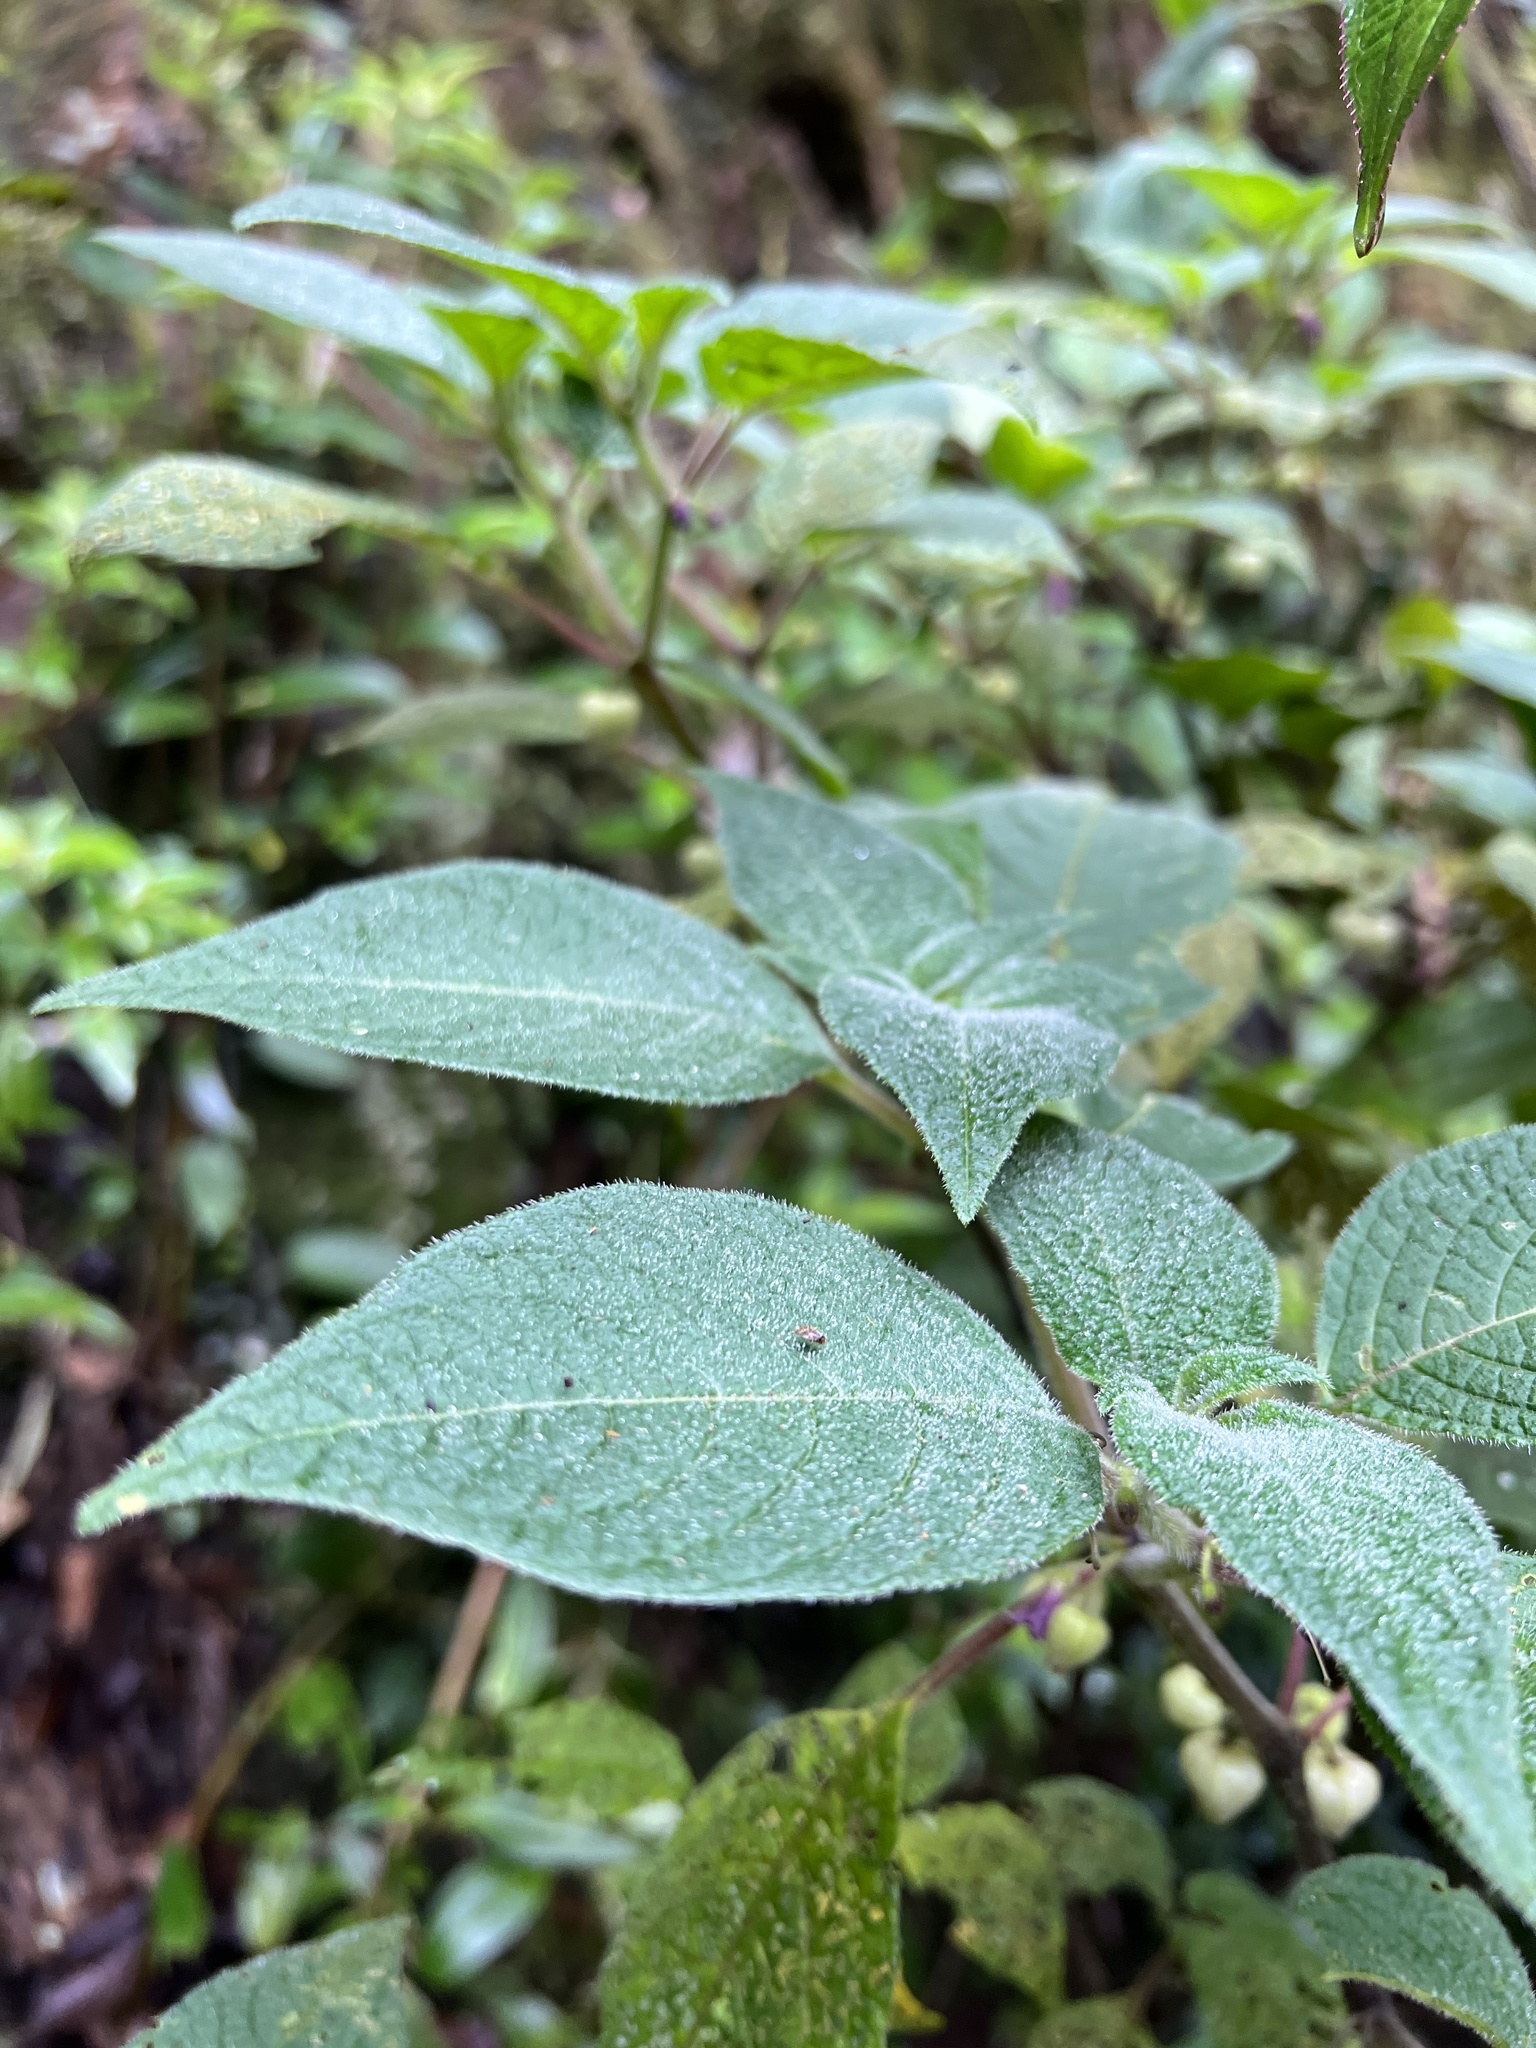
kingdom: Plantae
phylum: Tracheophyta
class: Magnoliopsida
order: Solanales
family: Solanaceae
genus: Deprea
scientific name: Deprea bitteriana
